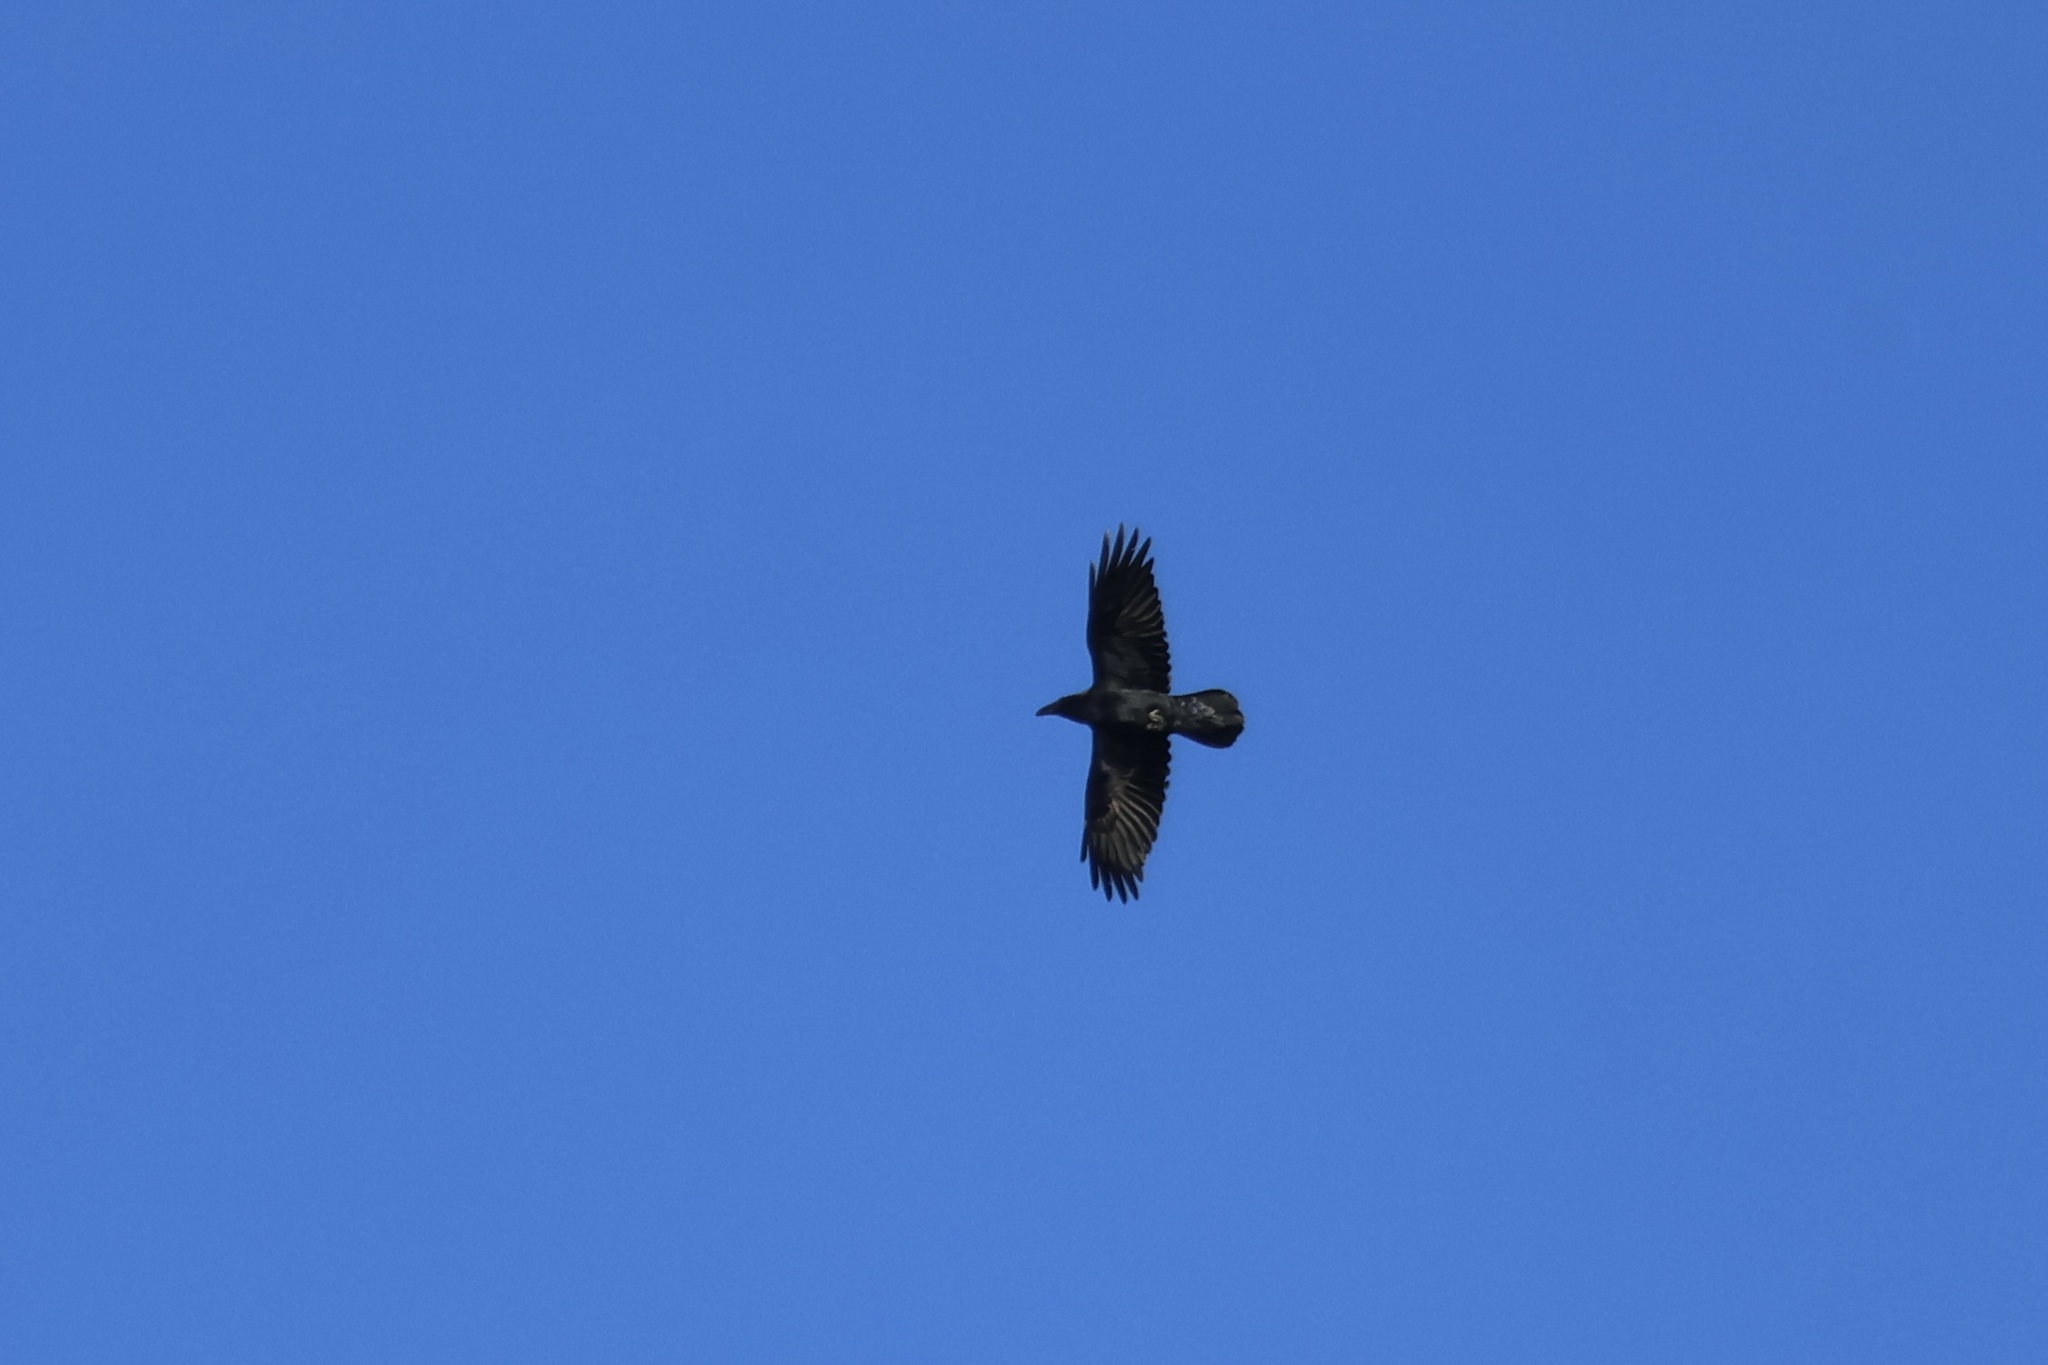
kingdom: Animalia
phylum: Chordata
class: Aves
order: Passeriformes
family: Corvidae
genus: Corvus
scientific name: Corvus corax
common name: Common raven
